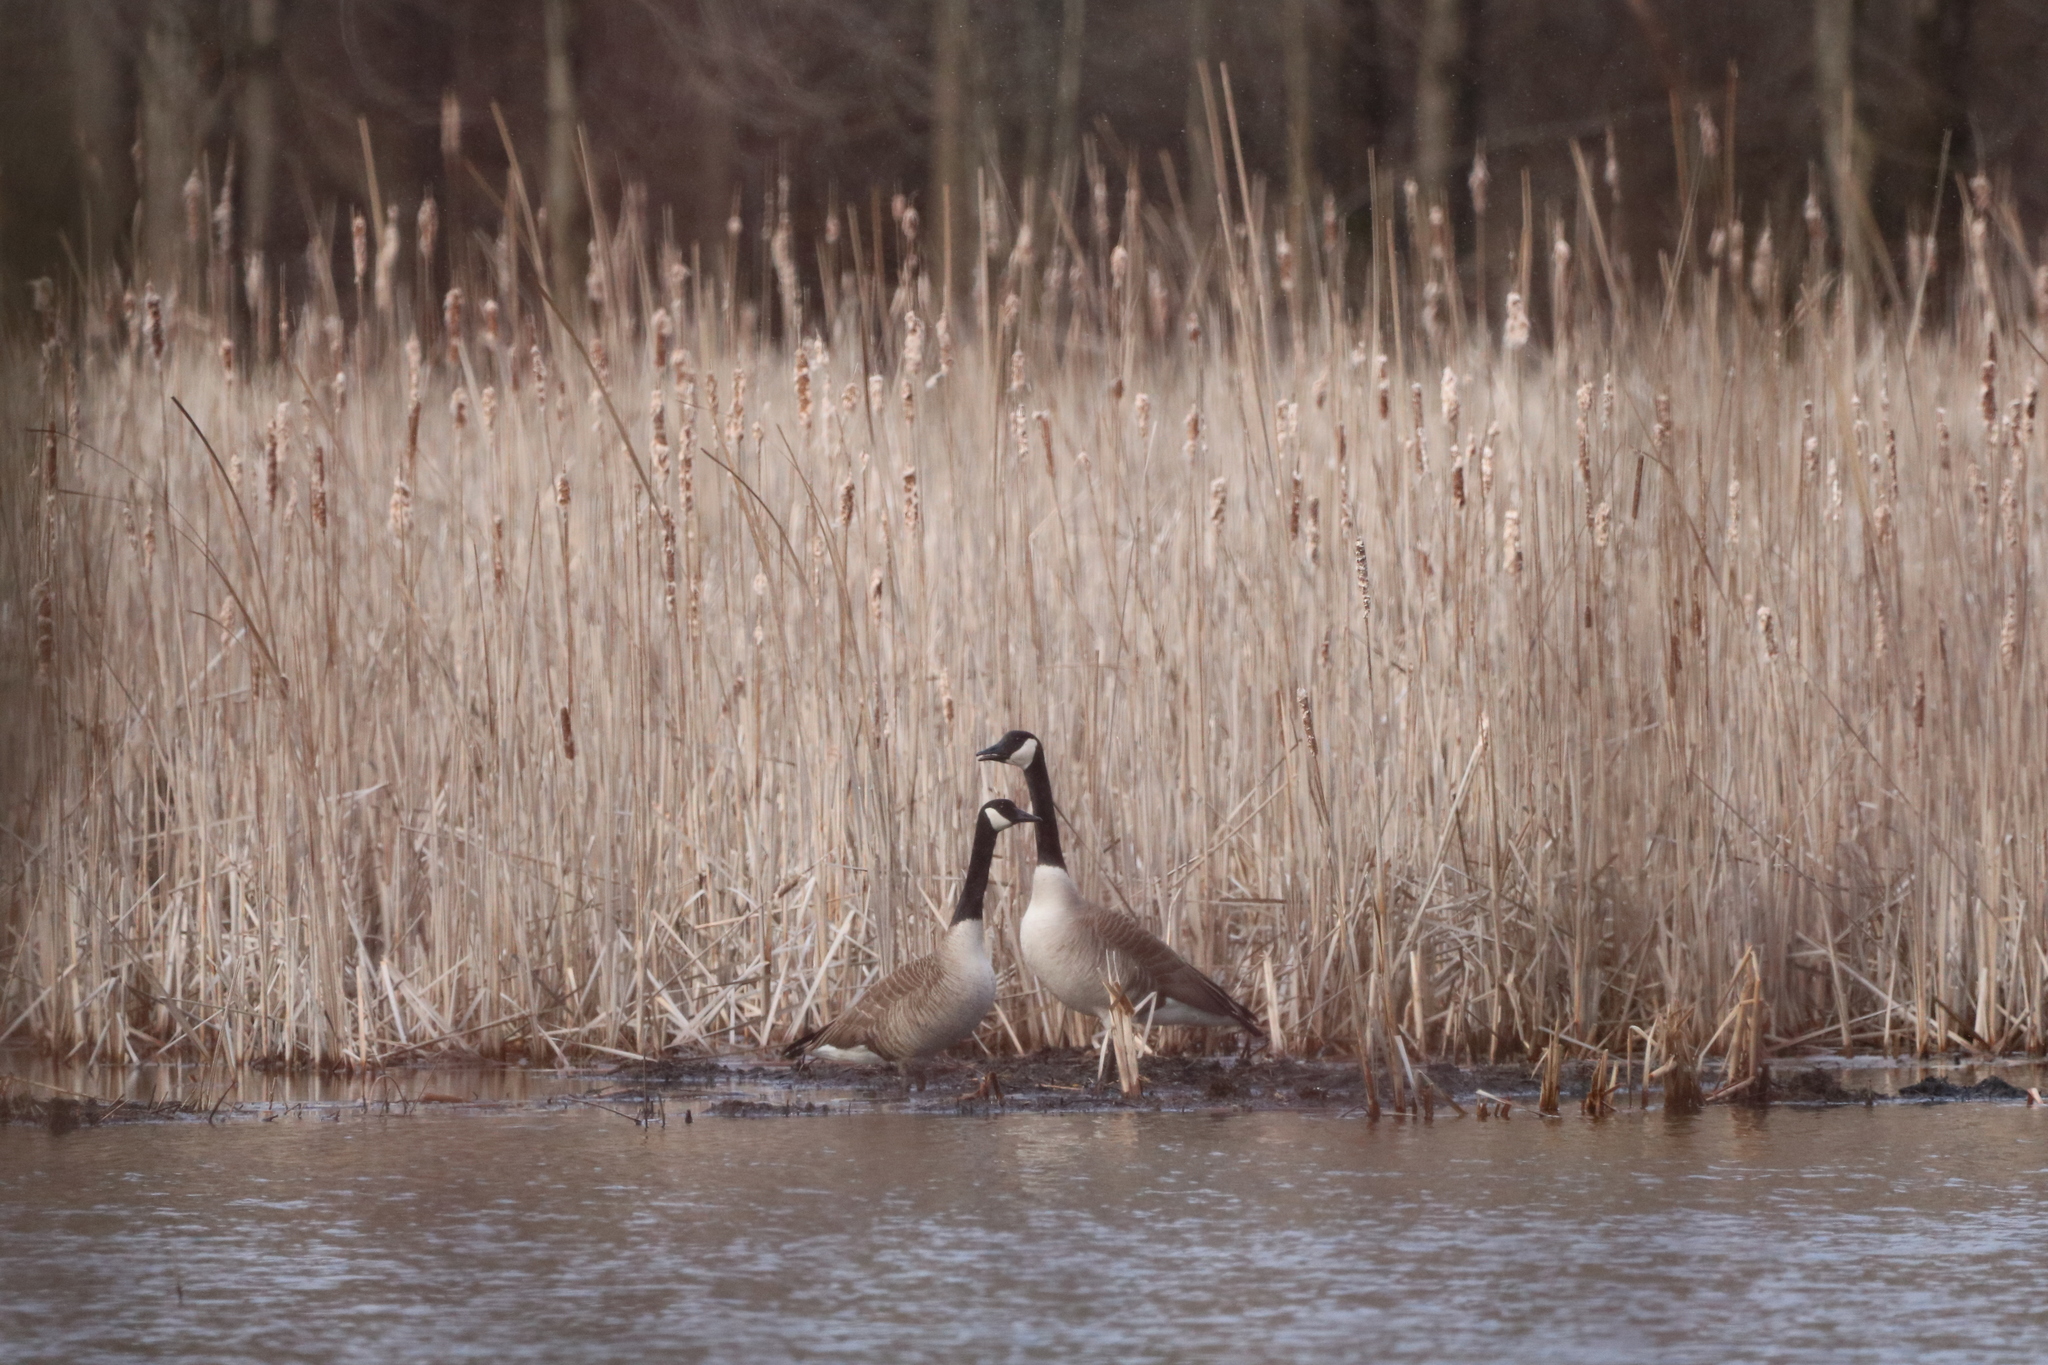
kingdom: Animalia
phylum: Chordata
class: Aves
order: Anseriformes
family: Anatidae
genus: Branta
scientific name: Branta canadensis
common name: Canada goose
